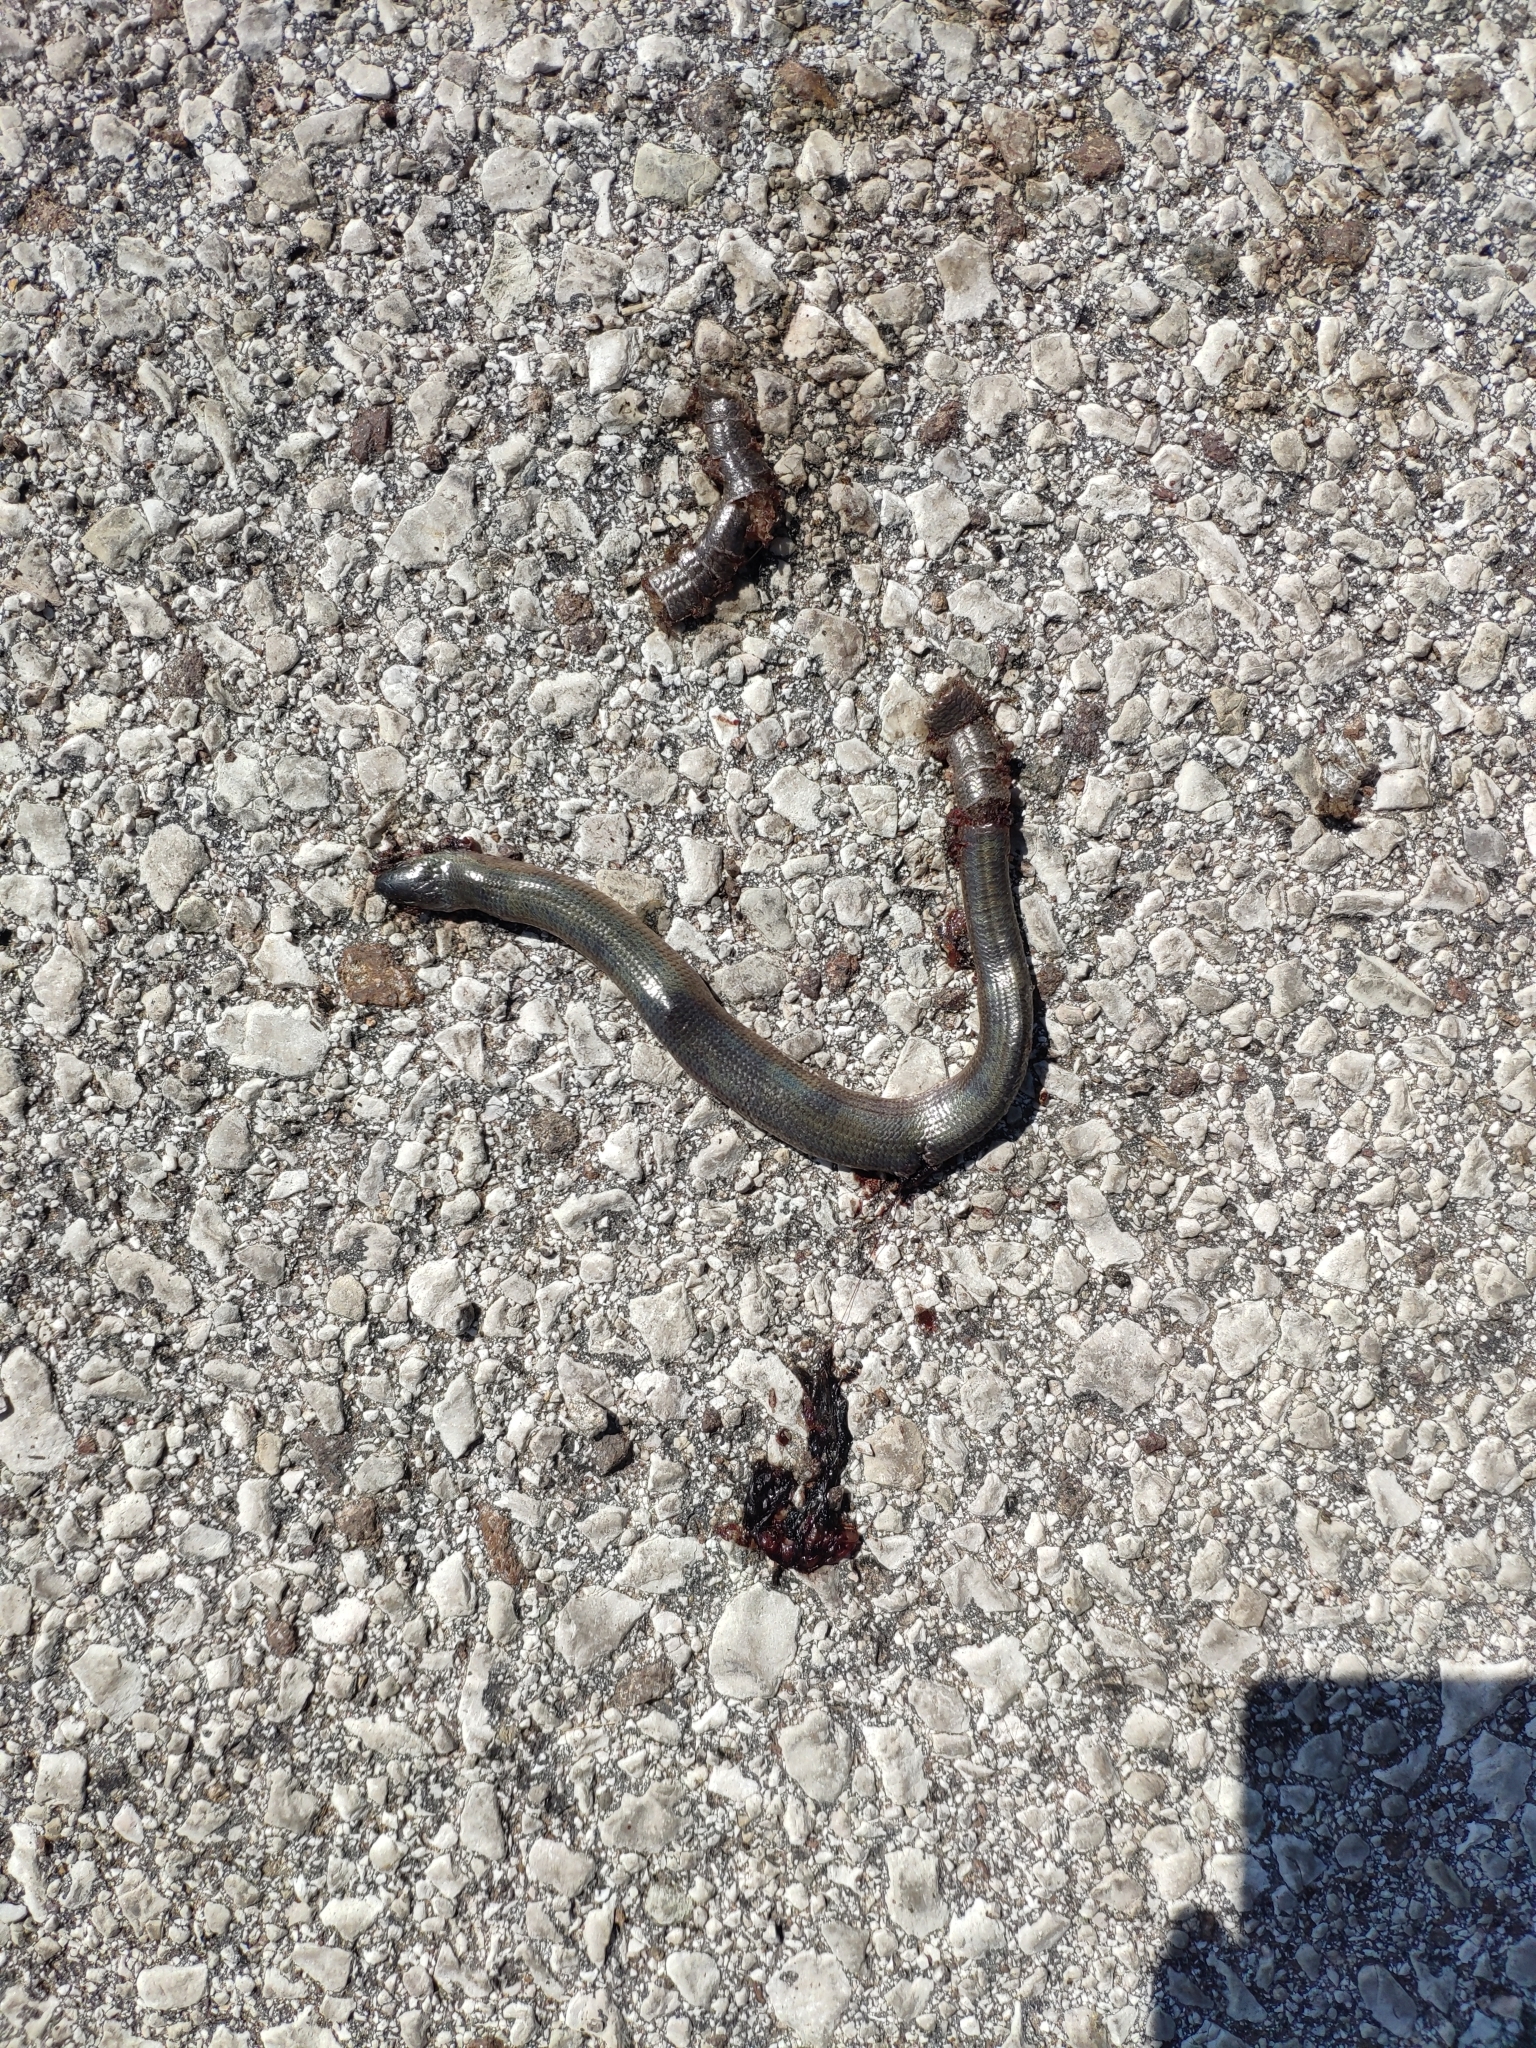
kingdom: Animalia
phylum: Chordata
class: Squamata
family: Anguidae
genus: Anguis
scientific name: Anguis veronensis
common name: Italian slow worm
